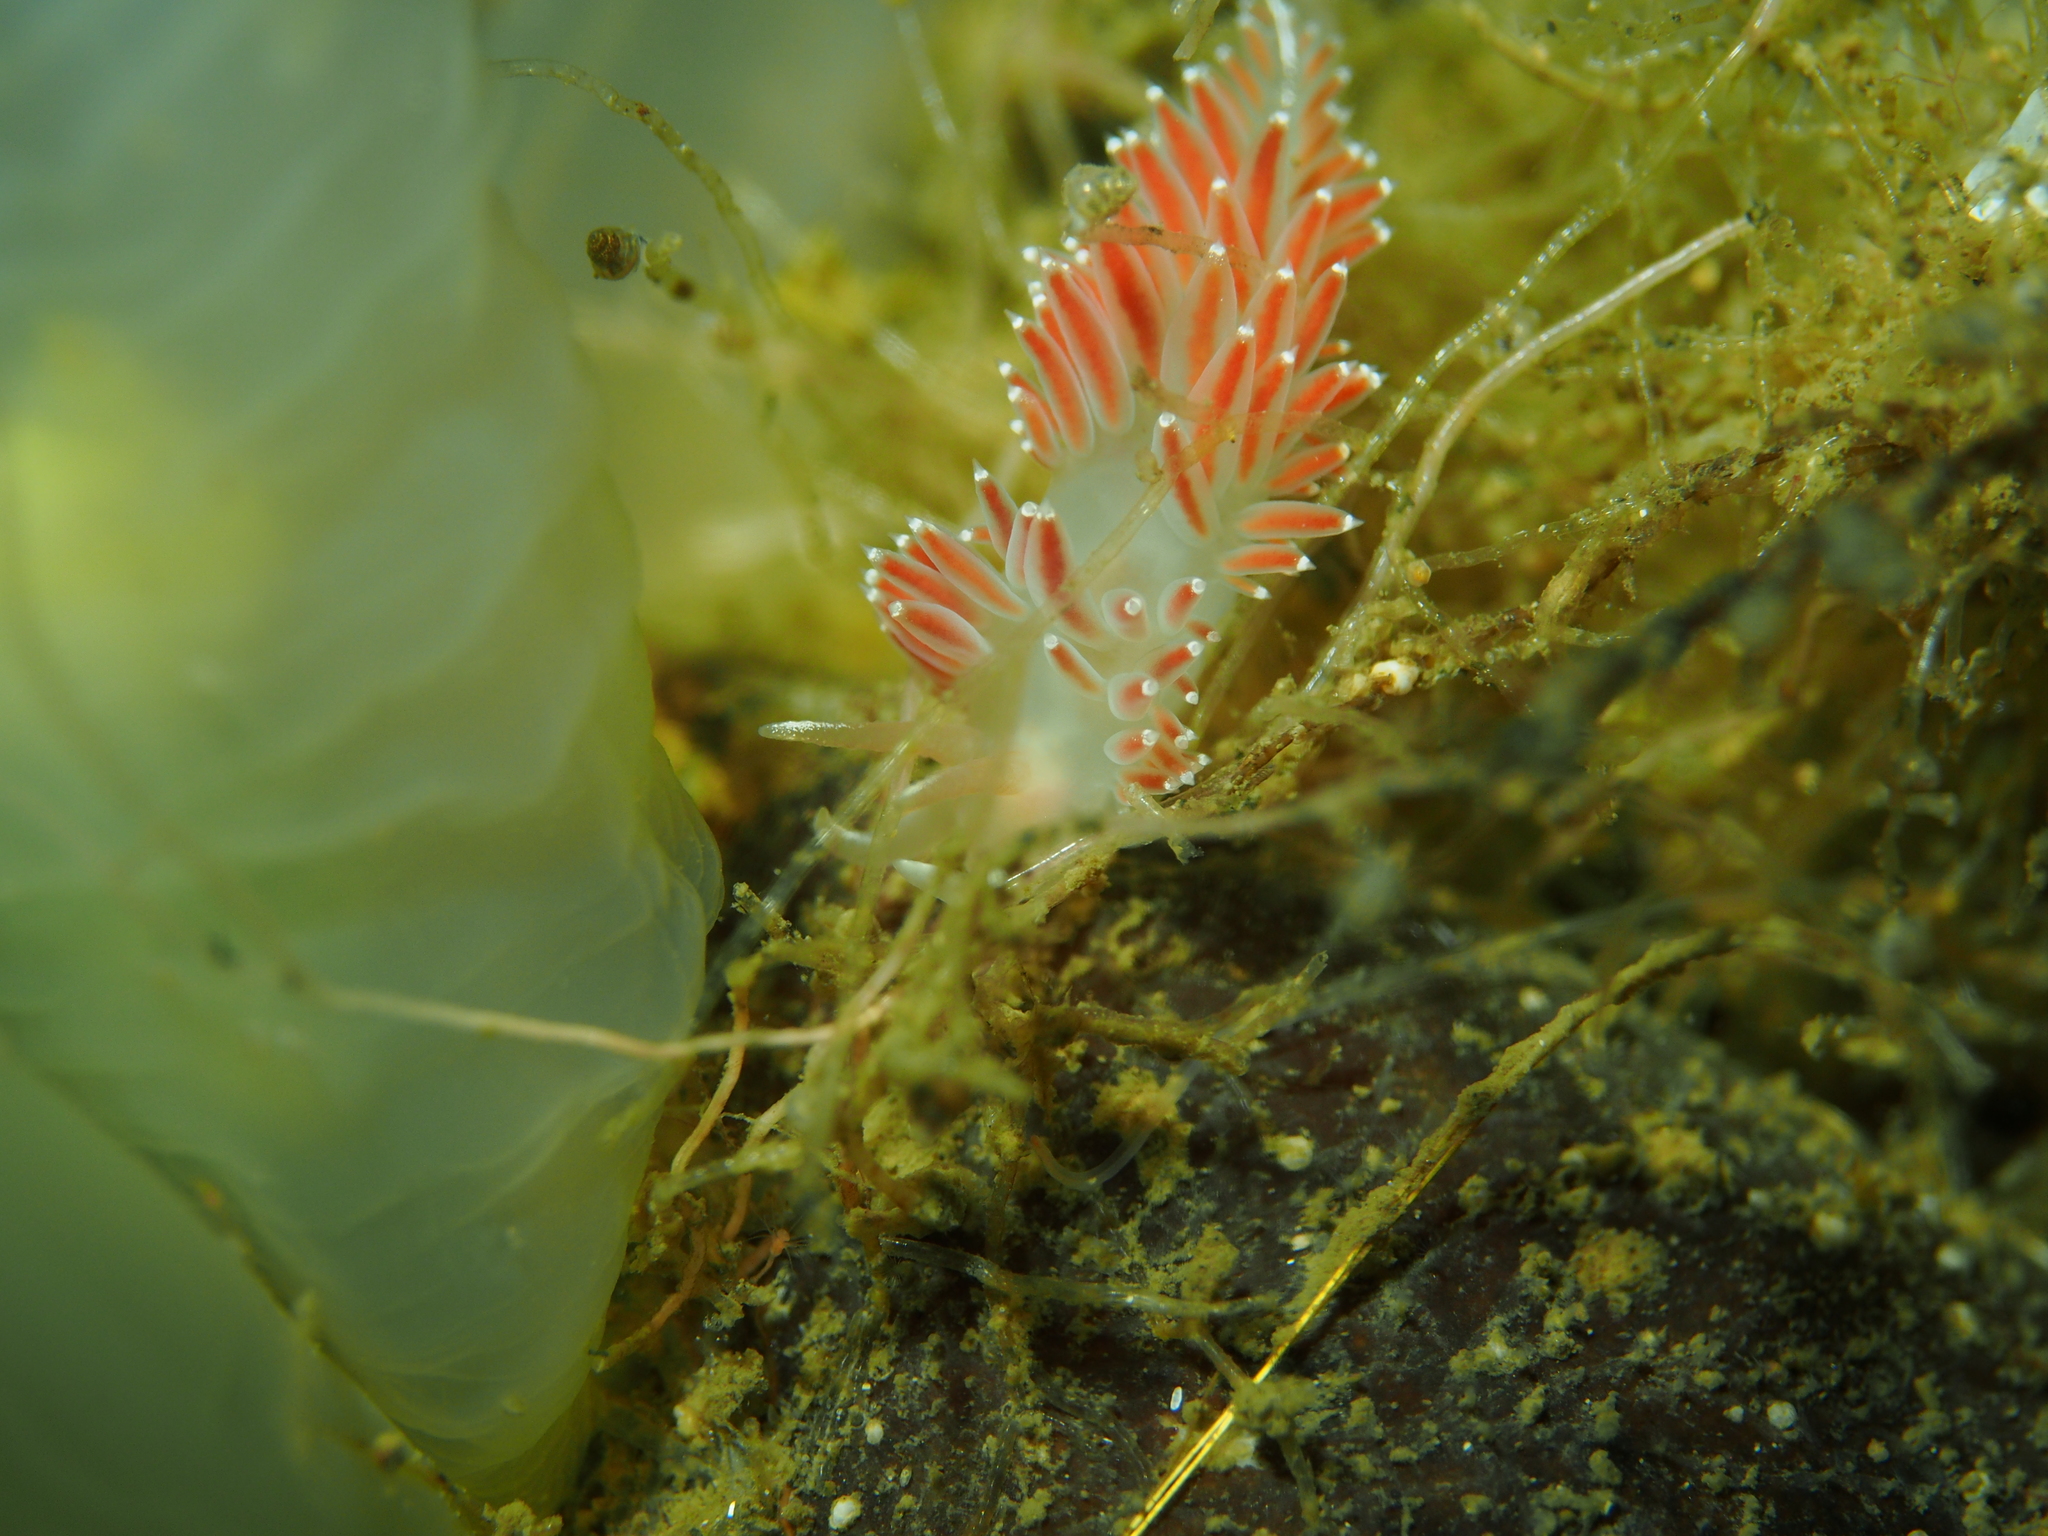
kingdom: Animalia
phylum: Mollusca
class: Gastropoda
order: Nudibranchia
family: Coryphellidae
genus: Coryphella
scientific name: Coryphella verrucosa
